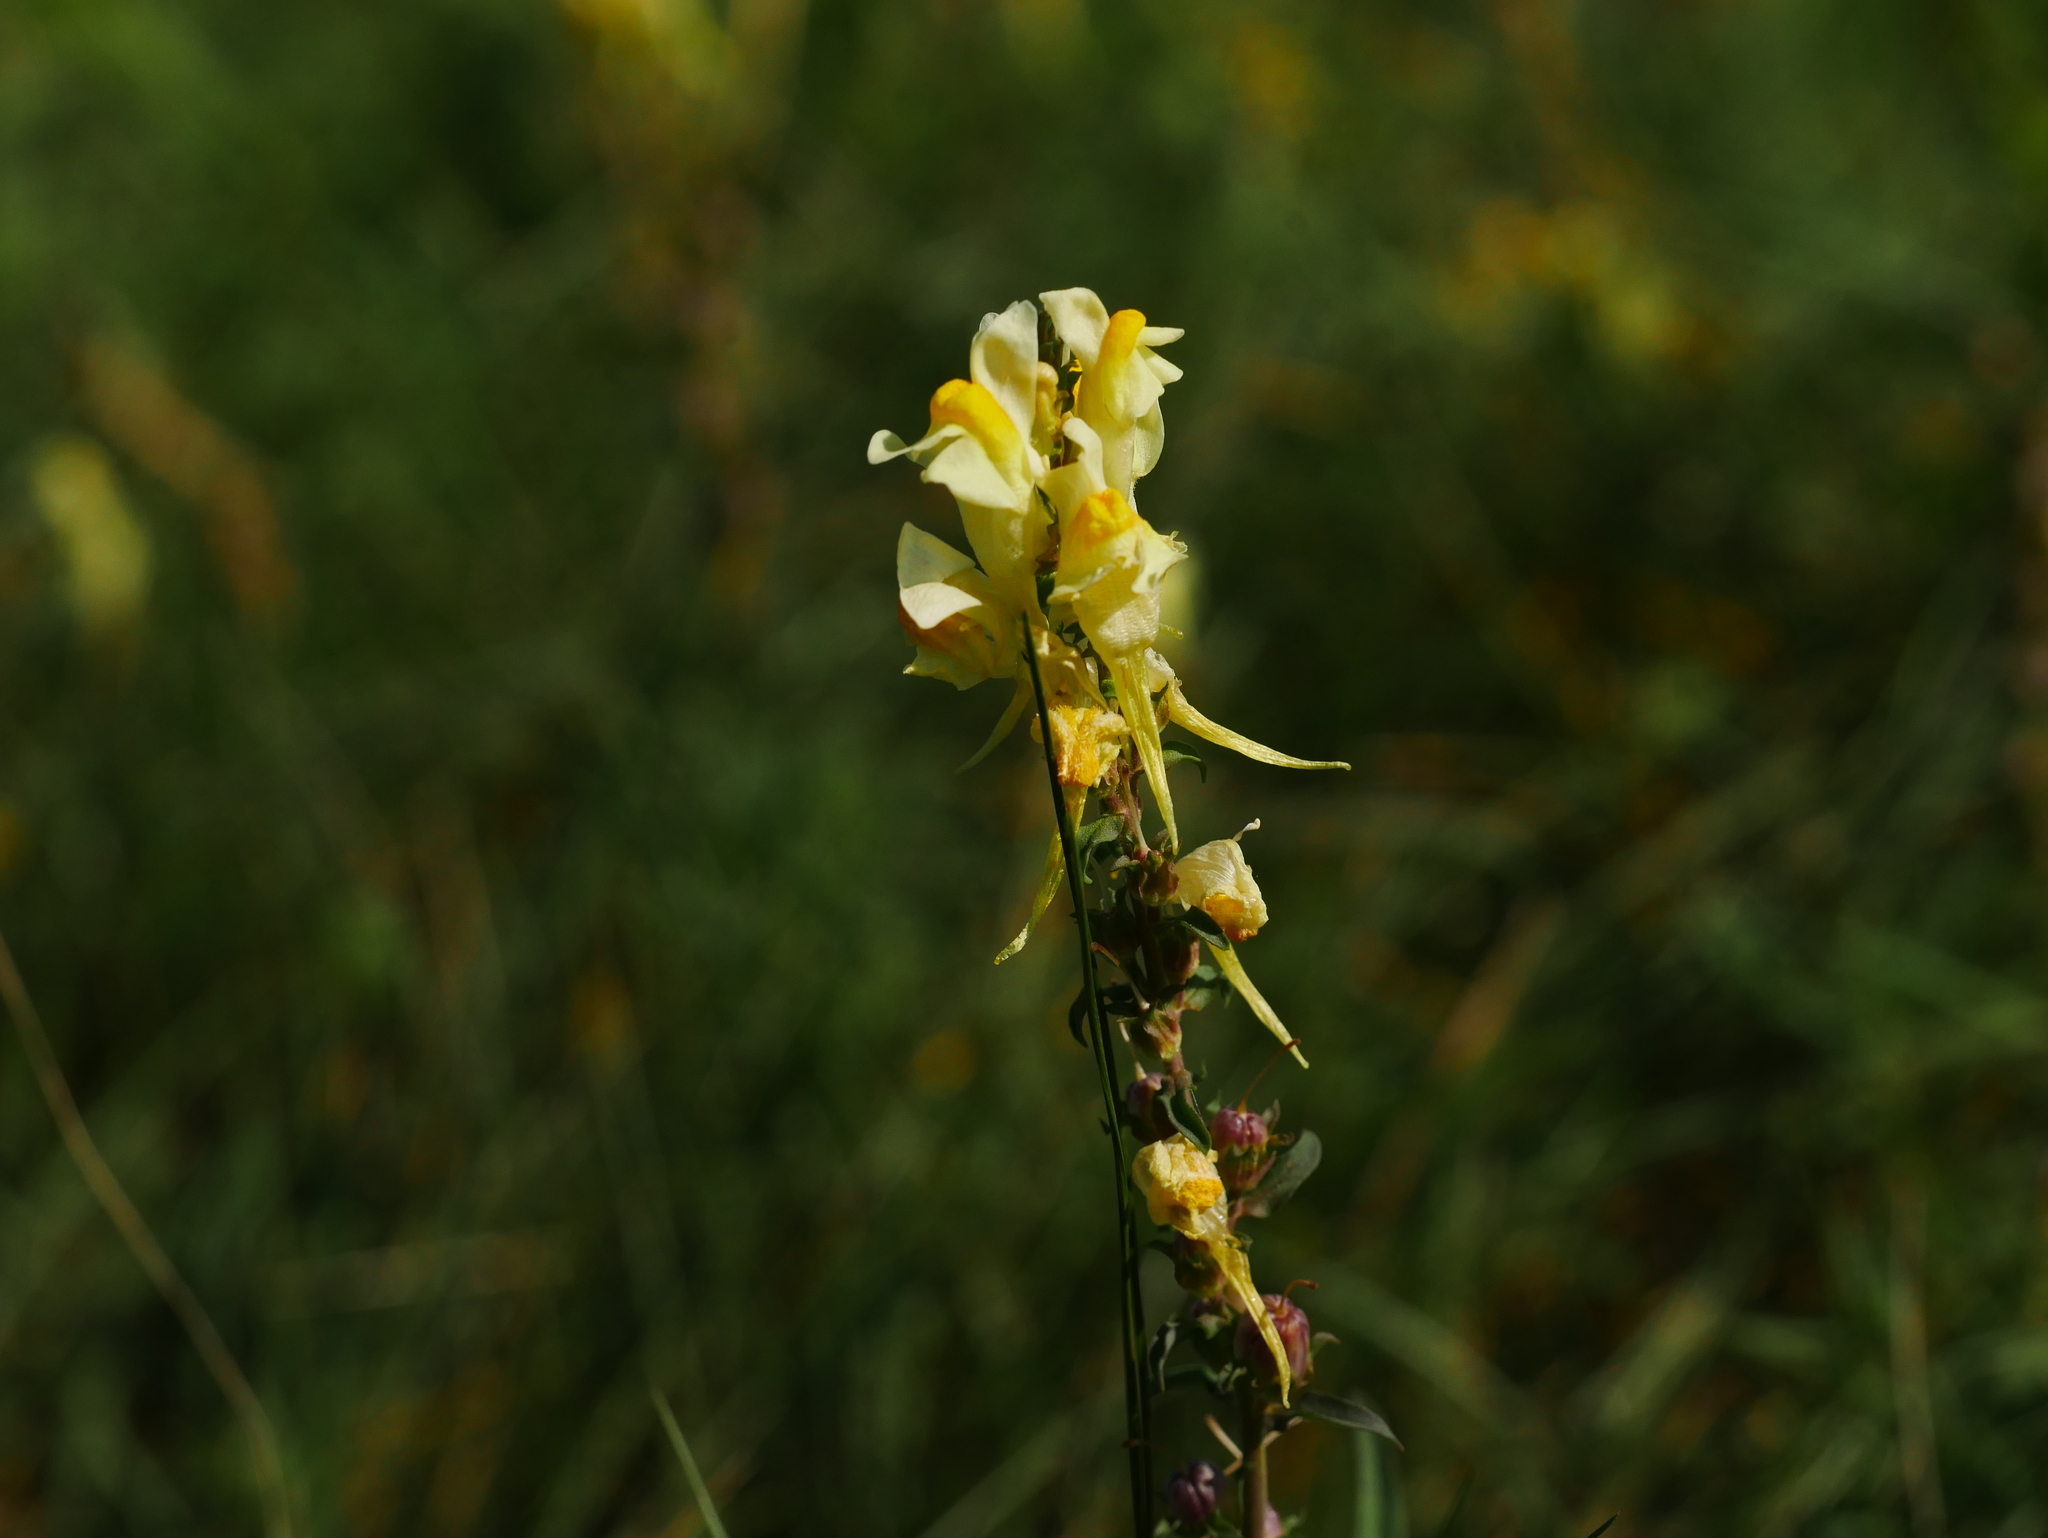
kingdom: Plantae
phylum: Tracheophyta
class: Magnoliopsida
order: Lamiales
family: Plantaginaceae
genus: Linaria
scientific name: Linaria vulgaris
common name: Butter and eggs
